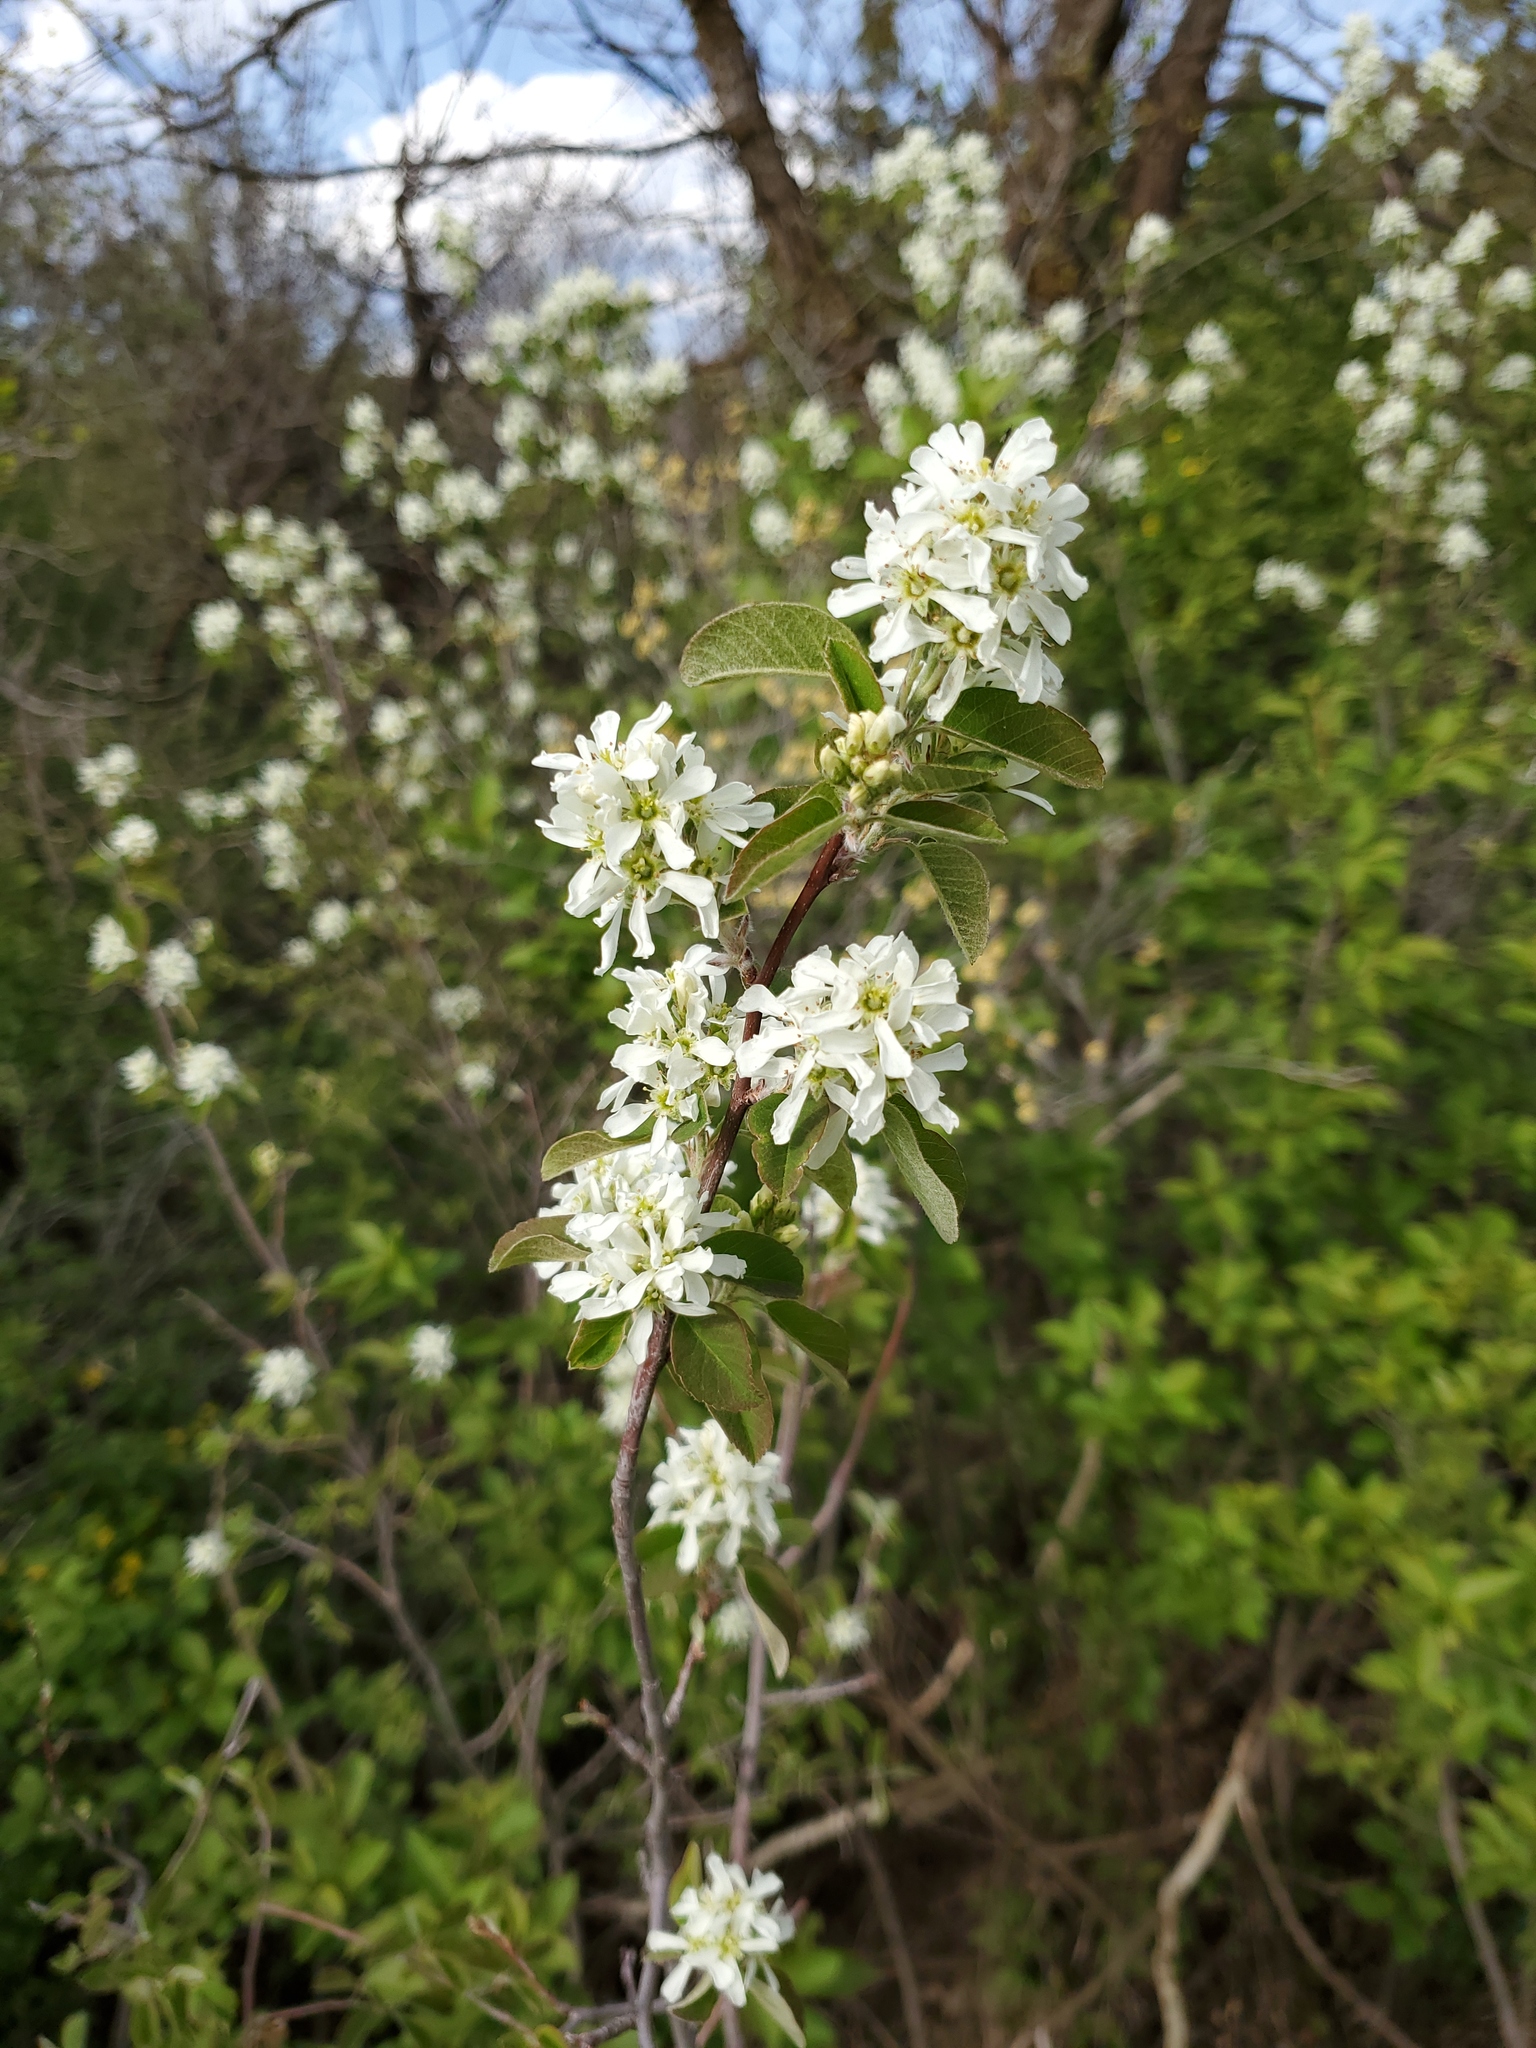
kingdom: Plantae
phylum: Tracheophyta
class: Magnoliopsida
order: Rosales
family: Rosaceae
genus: Amelanchier
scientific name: Amelanchier alnifolia
